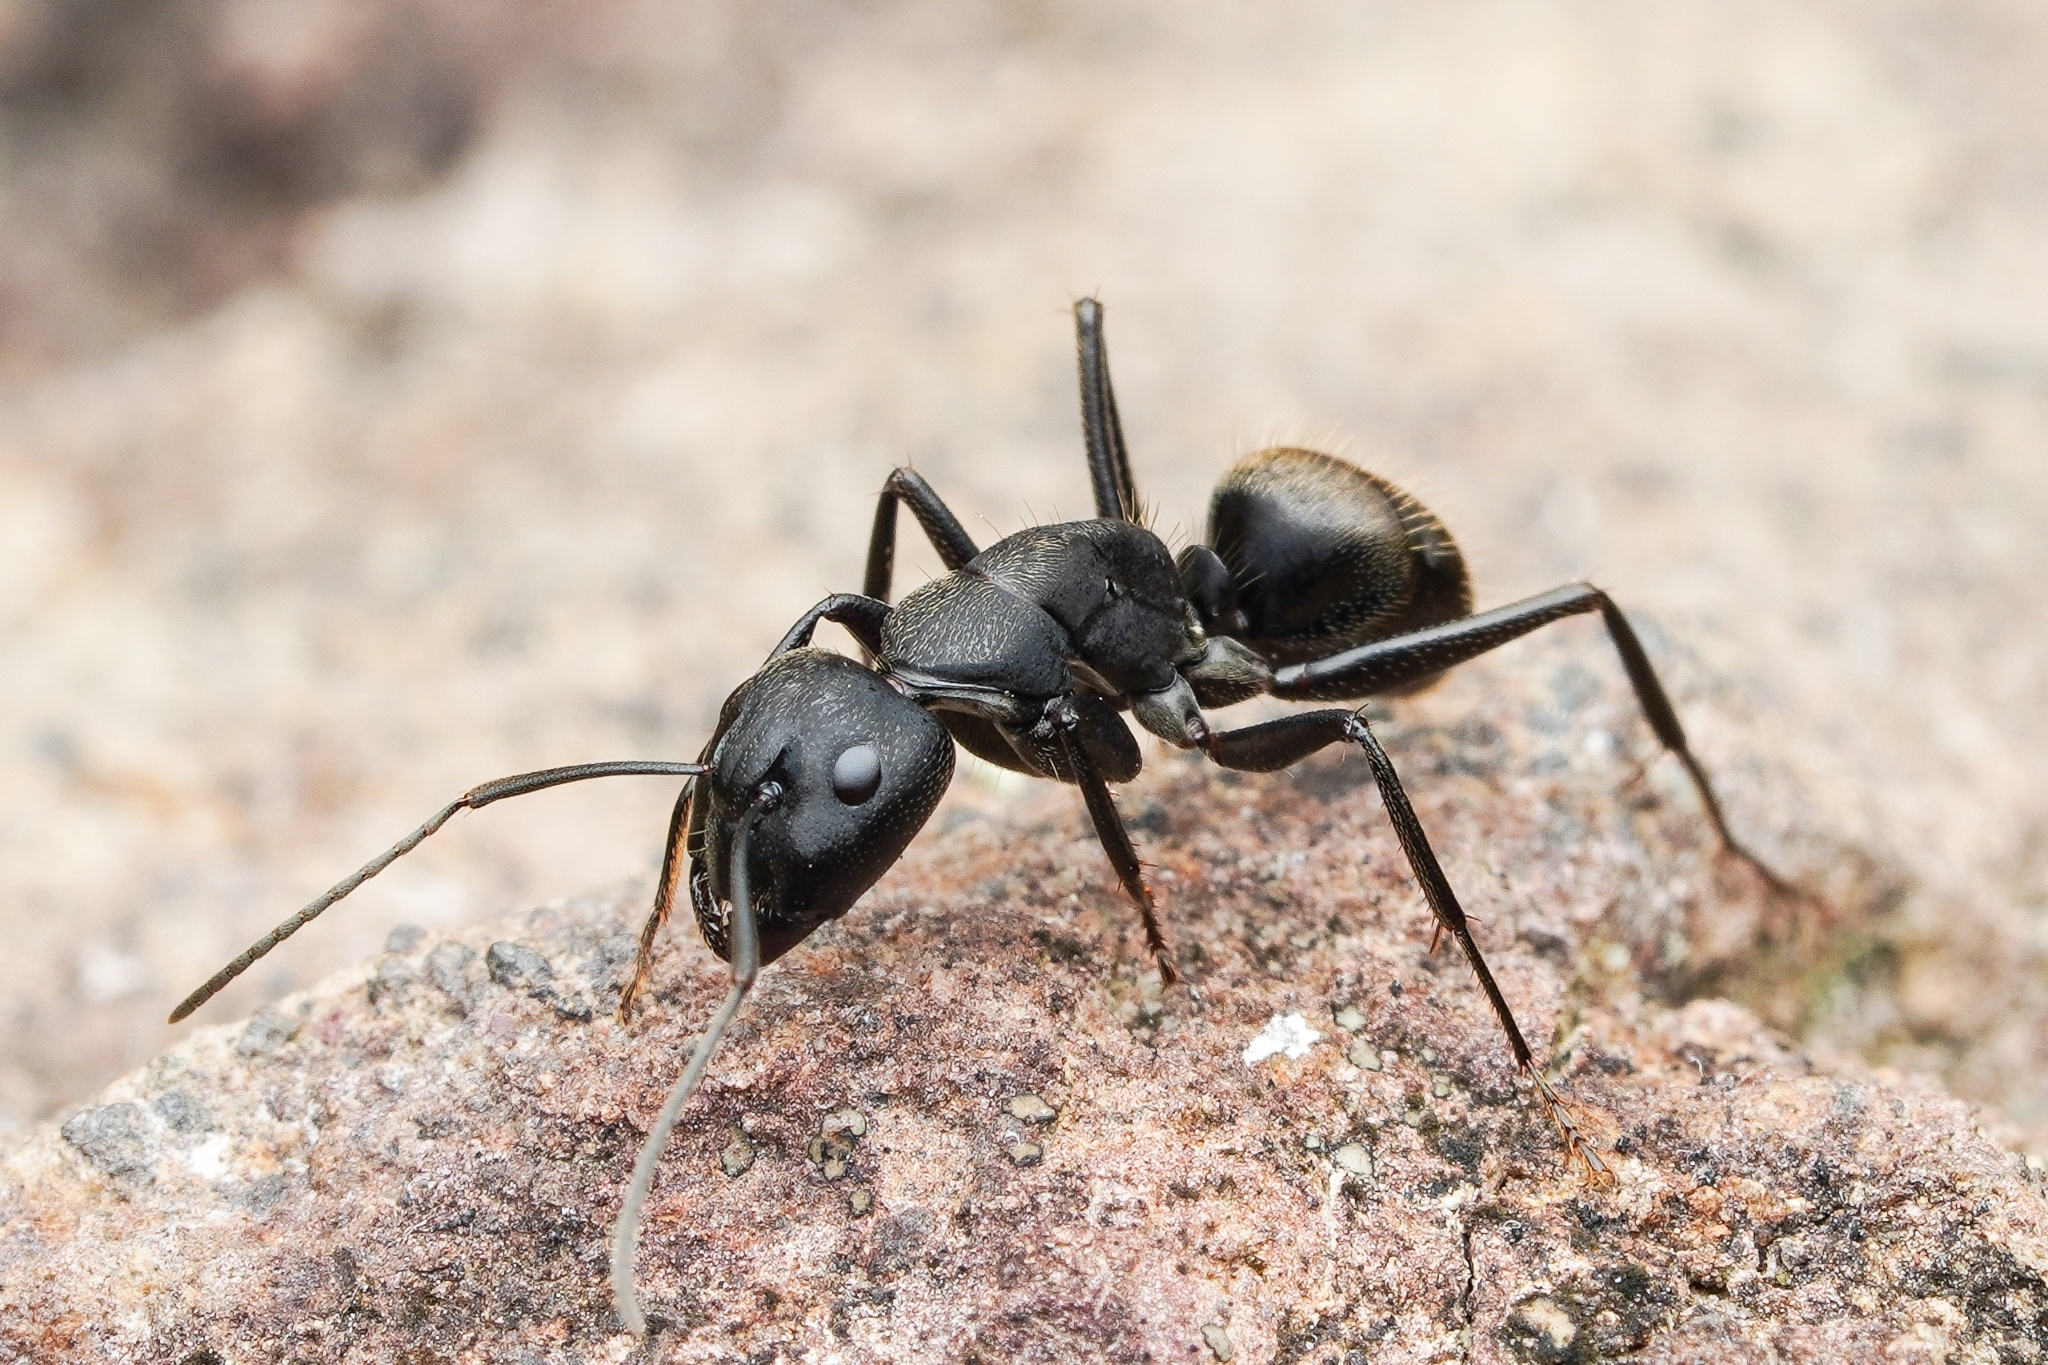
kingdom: Animalia
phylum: Arthropoda
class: Insecta
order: Hymenoptera
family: Formicidae
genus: Camponotus
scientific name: Camponotus japonicus
